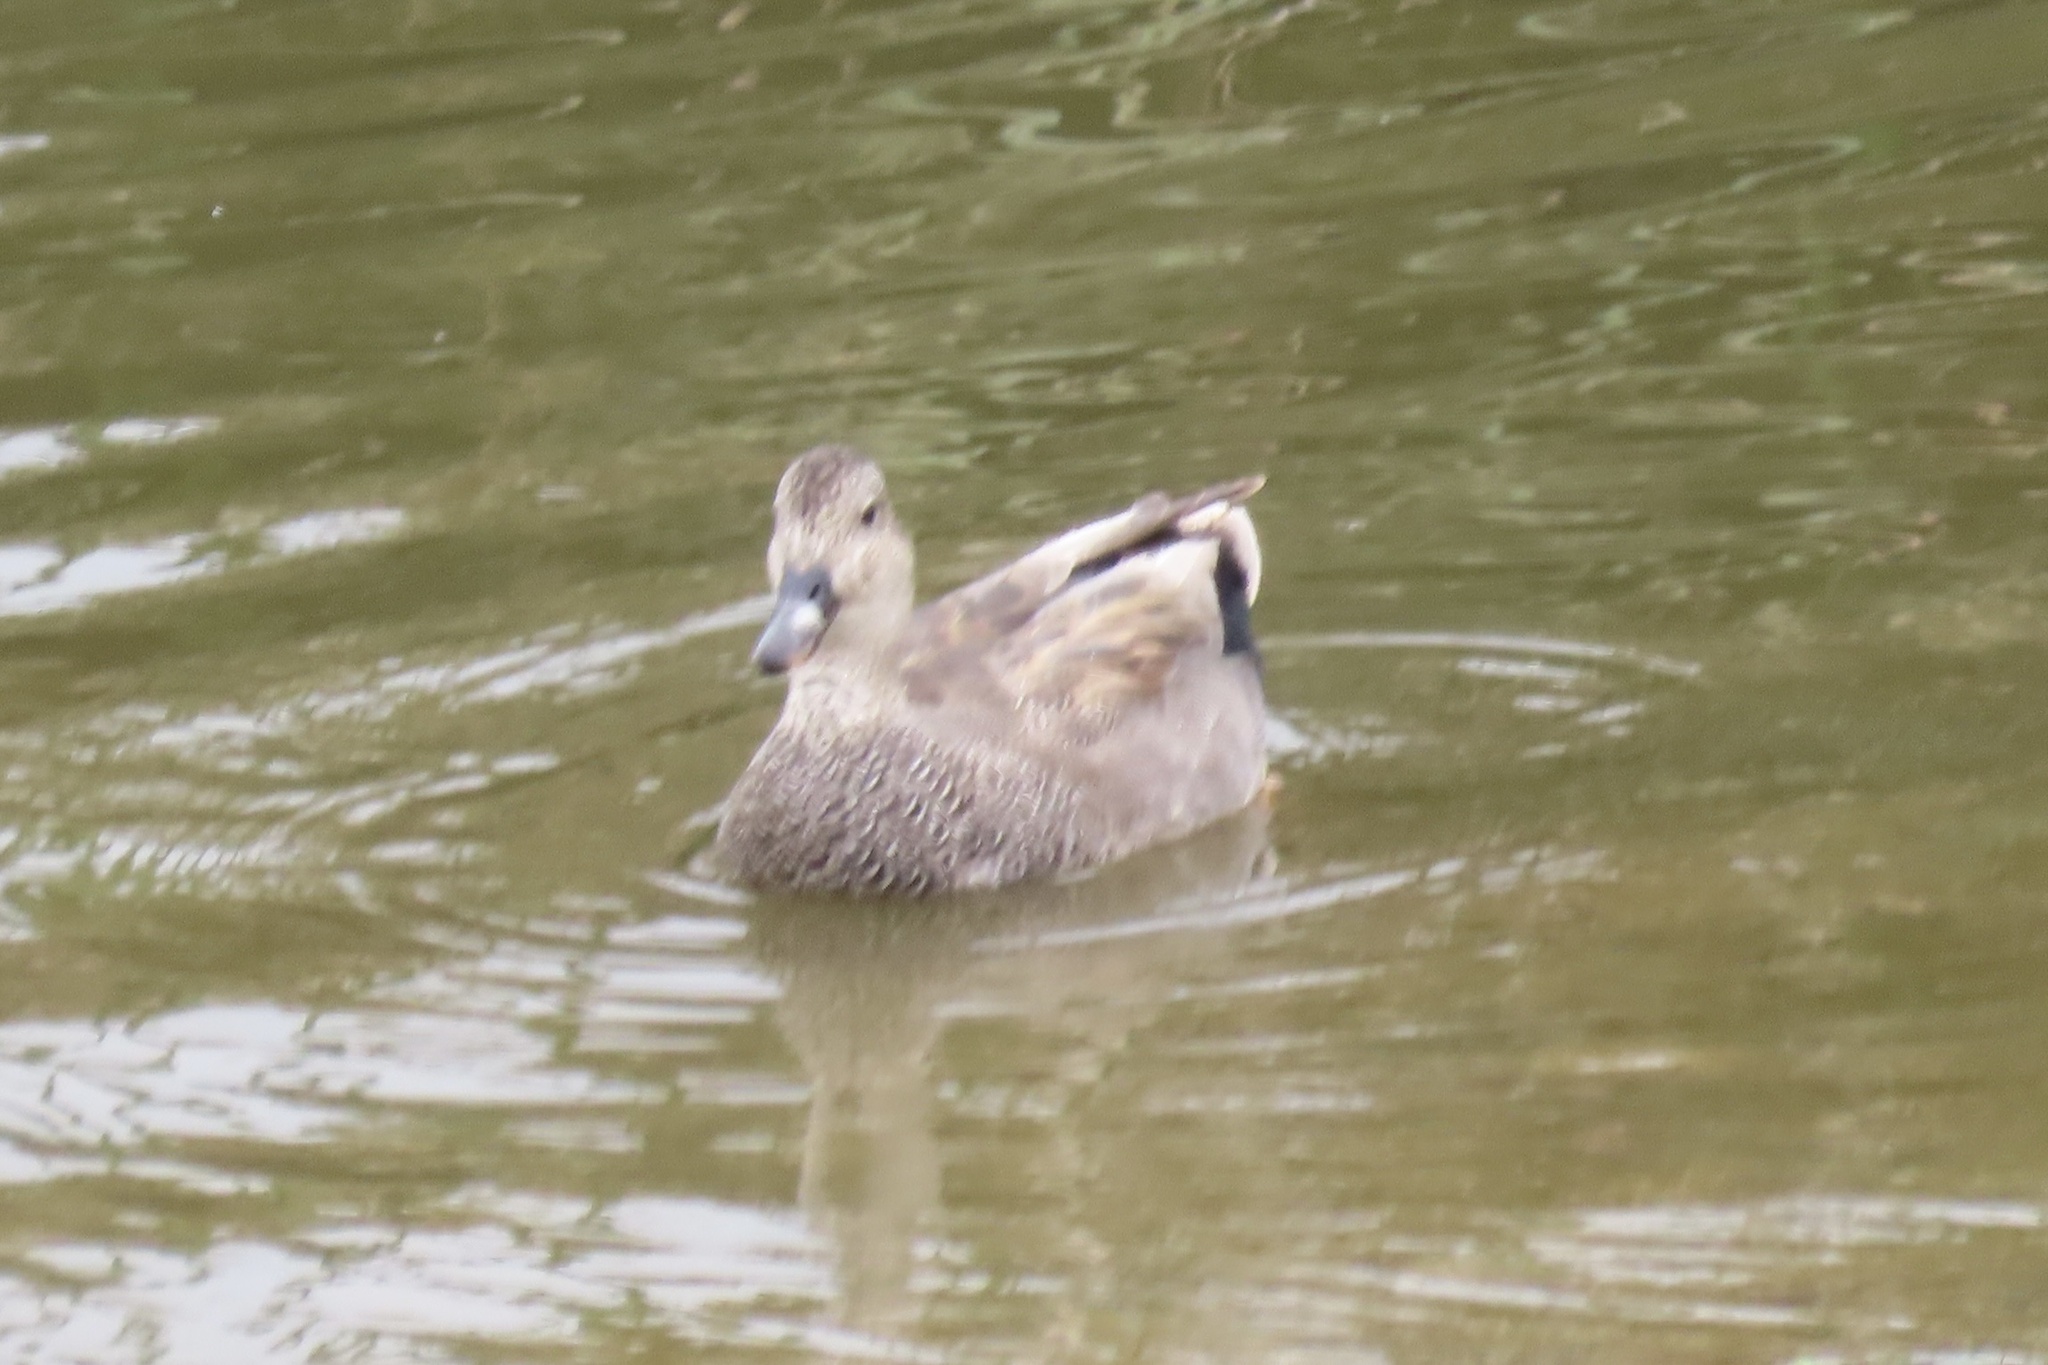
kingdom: Animalia
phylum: Chordata
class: Aves
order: Anseriformes
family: Anatidae
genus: Mareca
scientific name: Mareca strepera
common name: Gadwall
